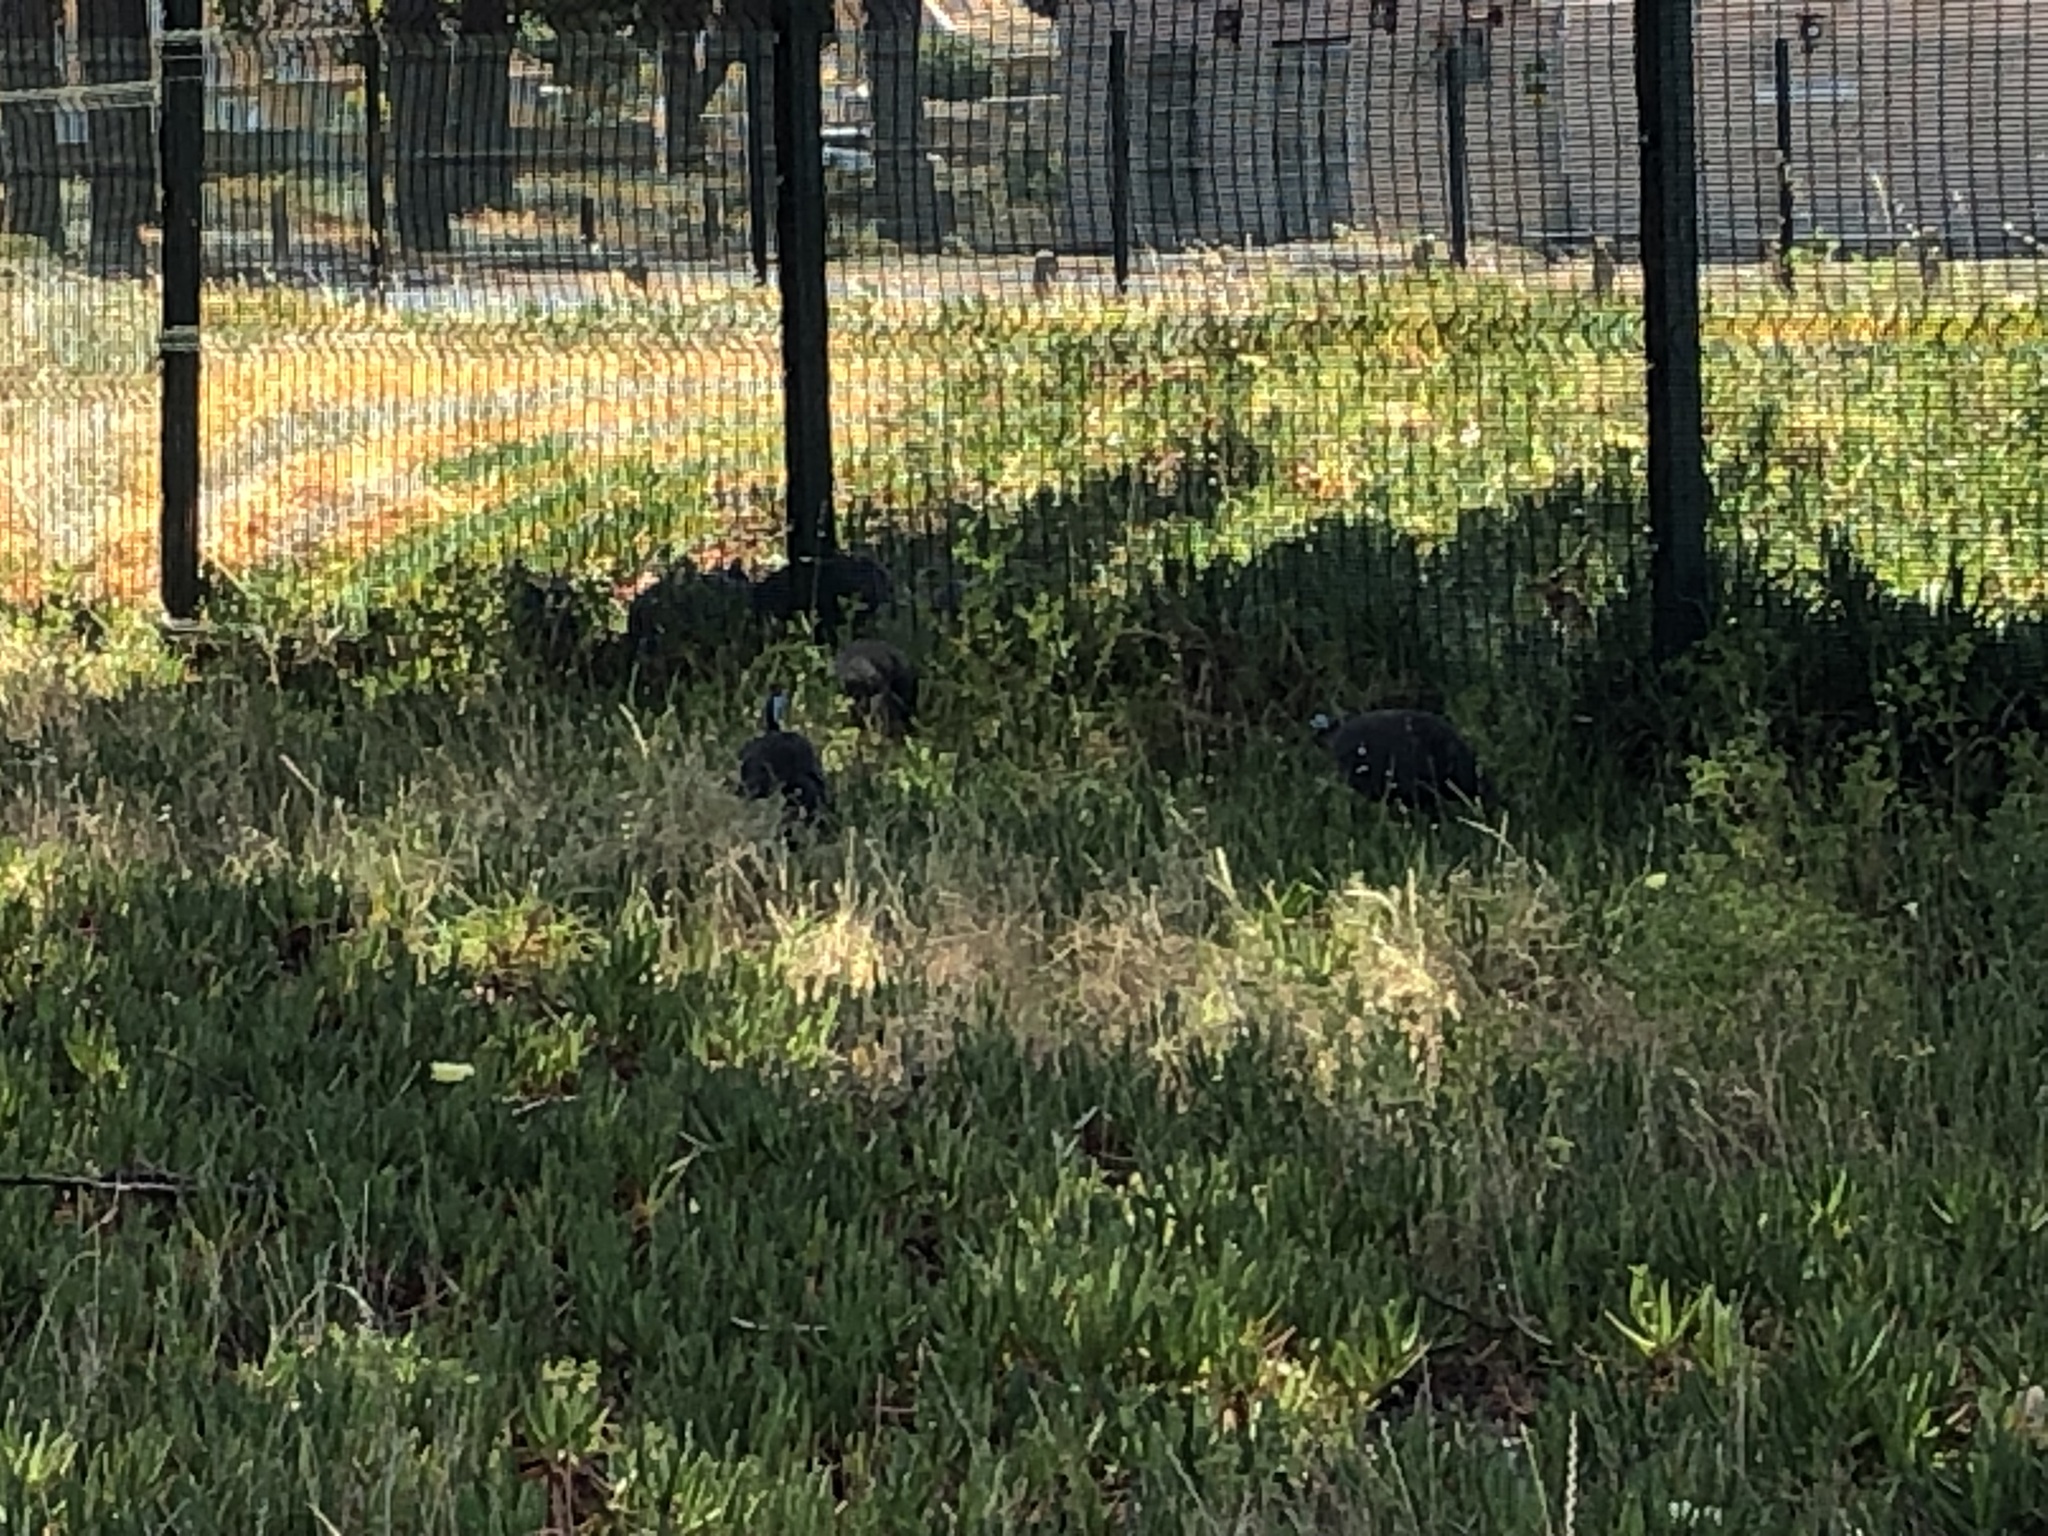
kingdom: Animalia
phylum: Chordata
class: Aves
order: Galliformes
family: Numididae
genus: Numida
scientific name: Numida meleagris
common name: Helmeted guineafowl
